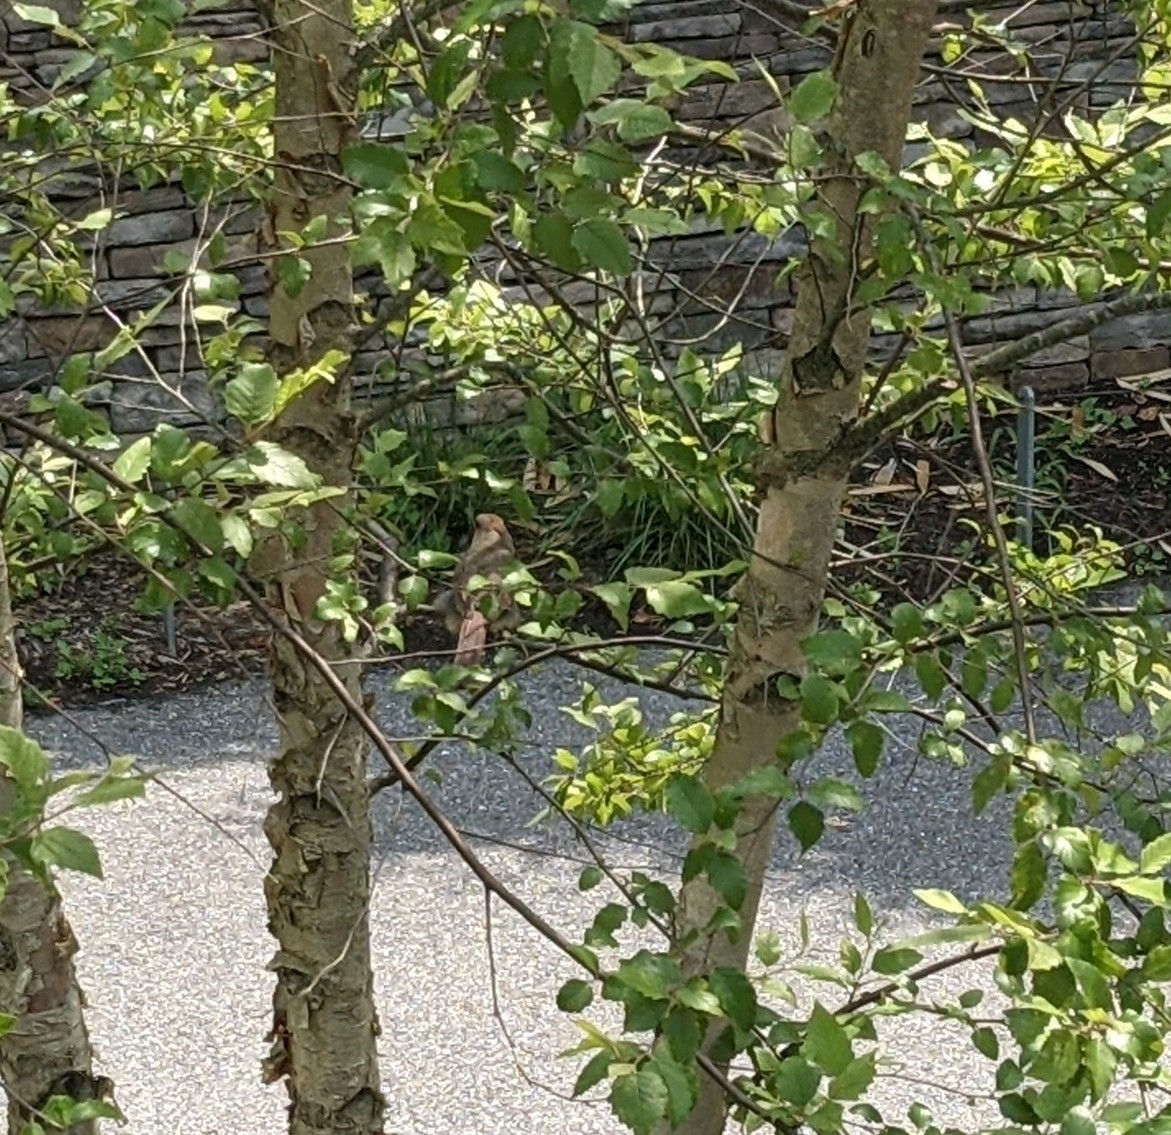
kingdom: Animalia
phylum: Chordata
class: Aves
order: Passeriformes
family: Cardinalidae
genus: Cardinalis
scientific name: Cardinalis cardinalis
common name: Northern cardinal
